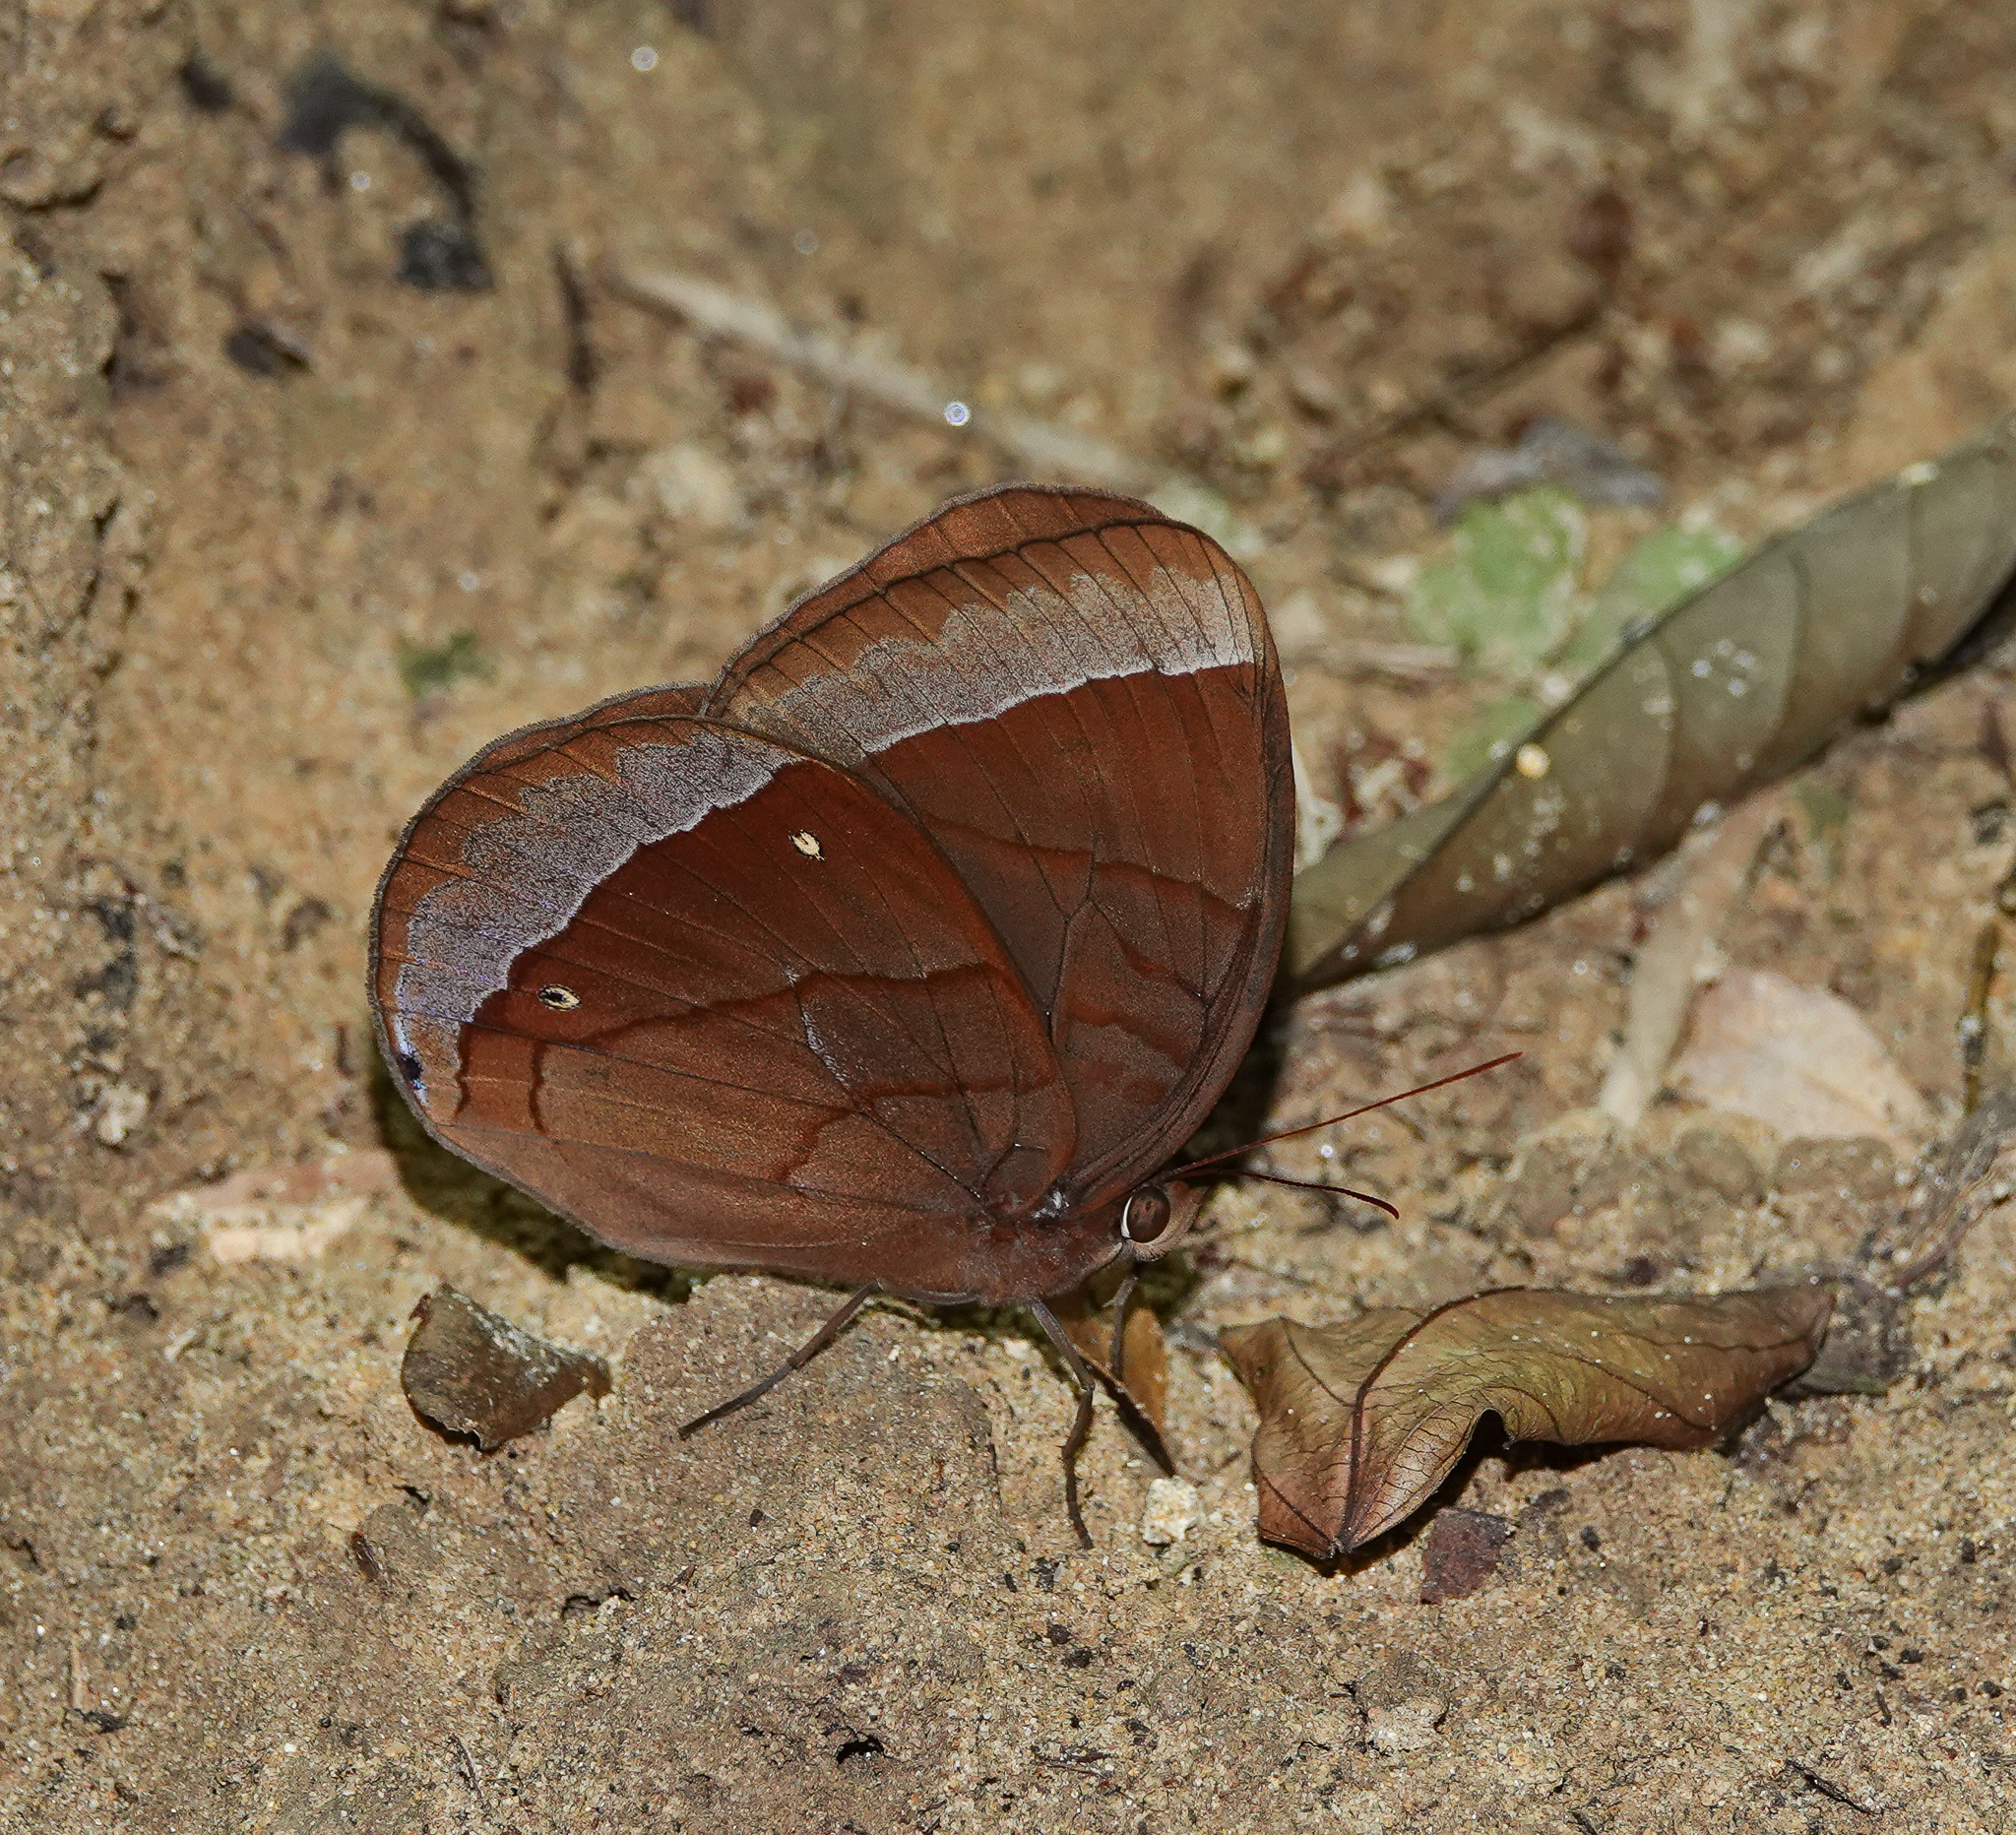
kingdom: Animalia
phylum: Arthropoda
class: Insecta
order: Lepidoptera
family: Nymphalidae
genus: Thaumantis
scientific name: Thaumantis diores
